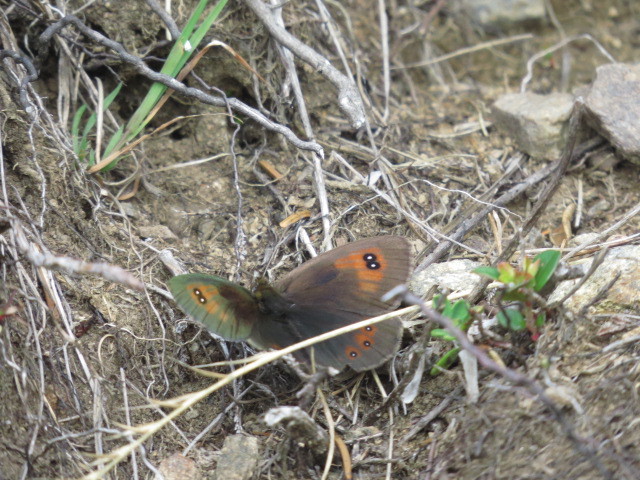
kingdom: Animalia
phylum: Arthropoda
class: Insecta
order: Lepidoptera
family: Nymphalidae
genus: Erebia
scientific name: Erebia cassioides
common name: Common brassy ringlet
